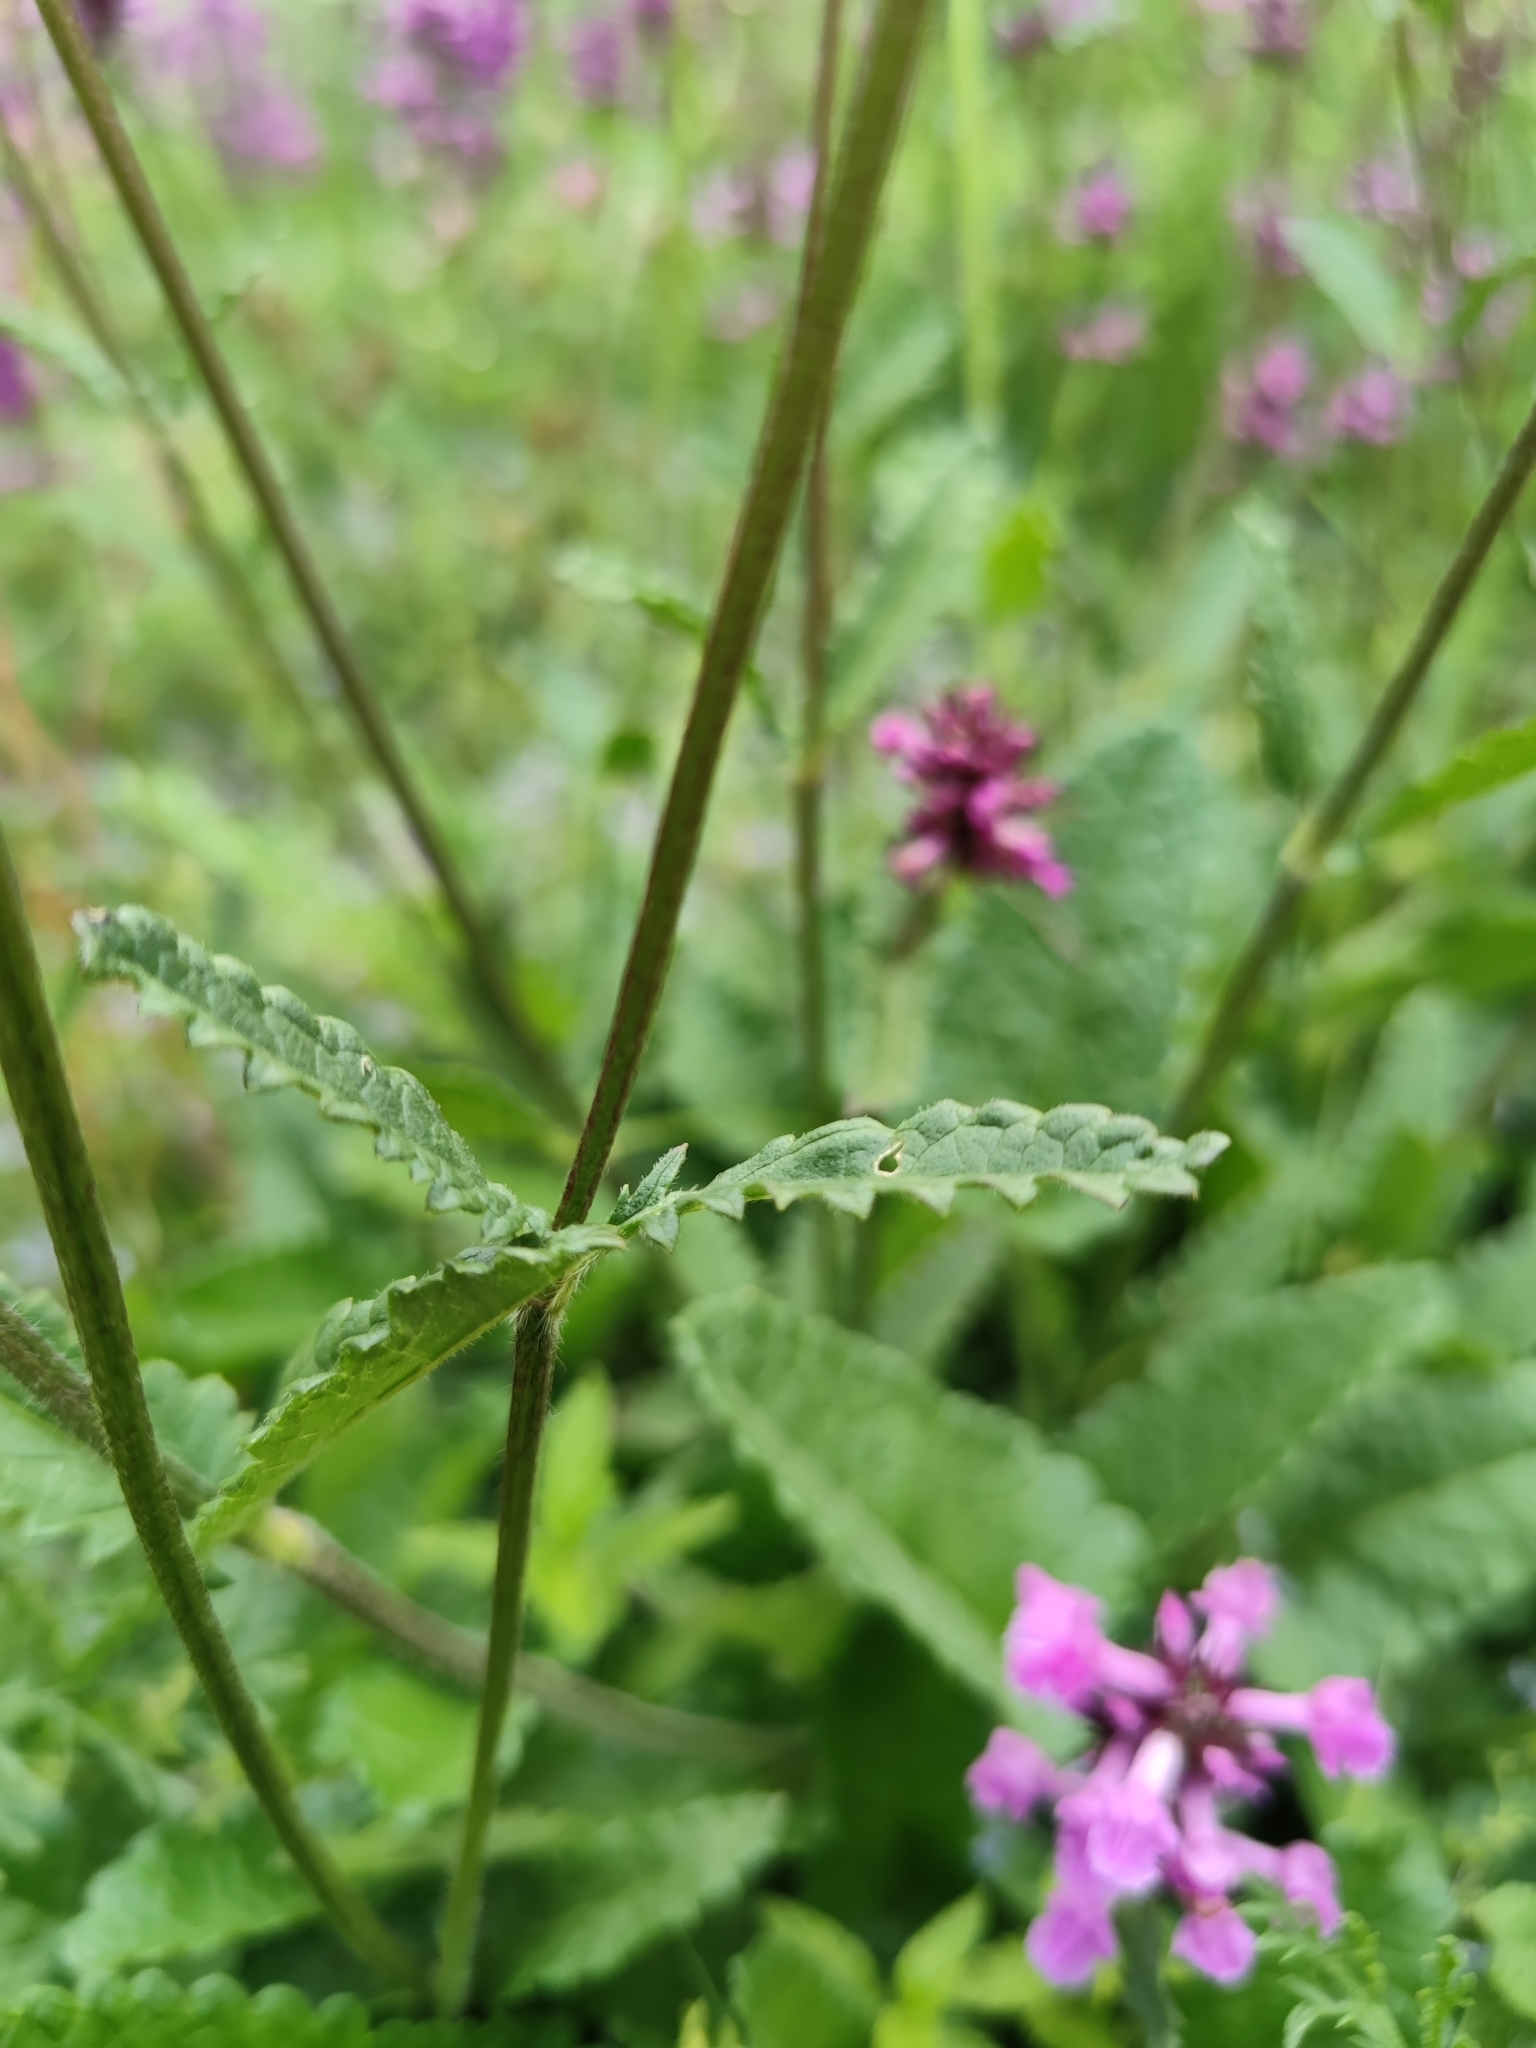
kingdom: Plantae
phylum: Tracheophyta
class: Magnoliopsida
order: Lamiales
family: Lamiaceae
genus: Betonica
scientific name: Betonica officinalis
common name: Bishop's-wort
